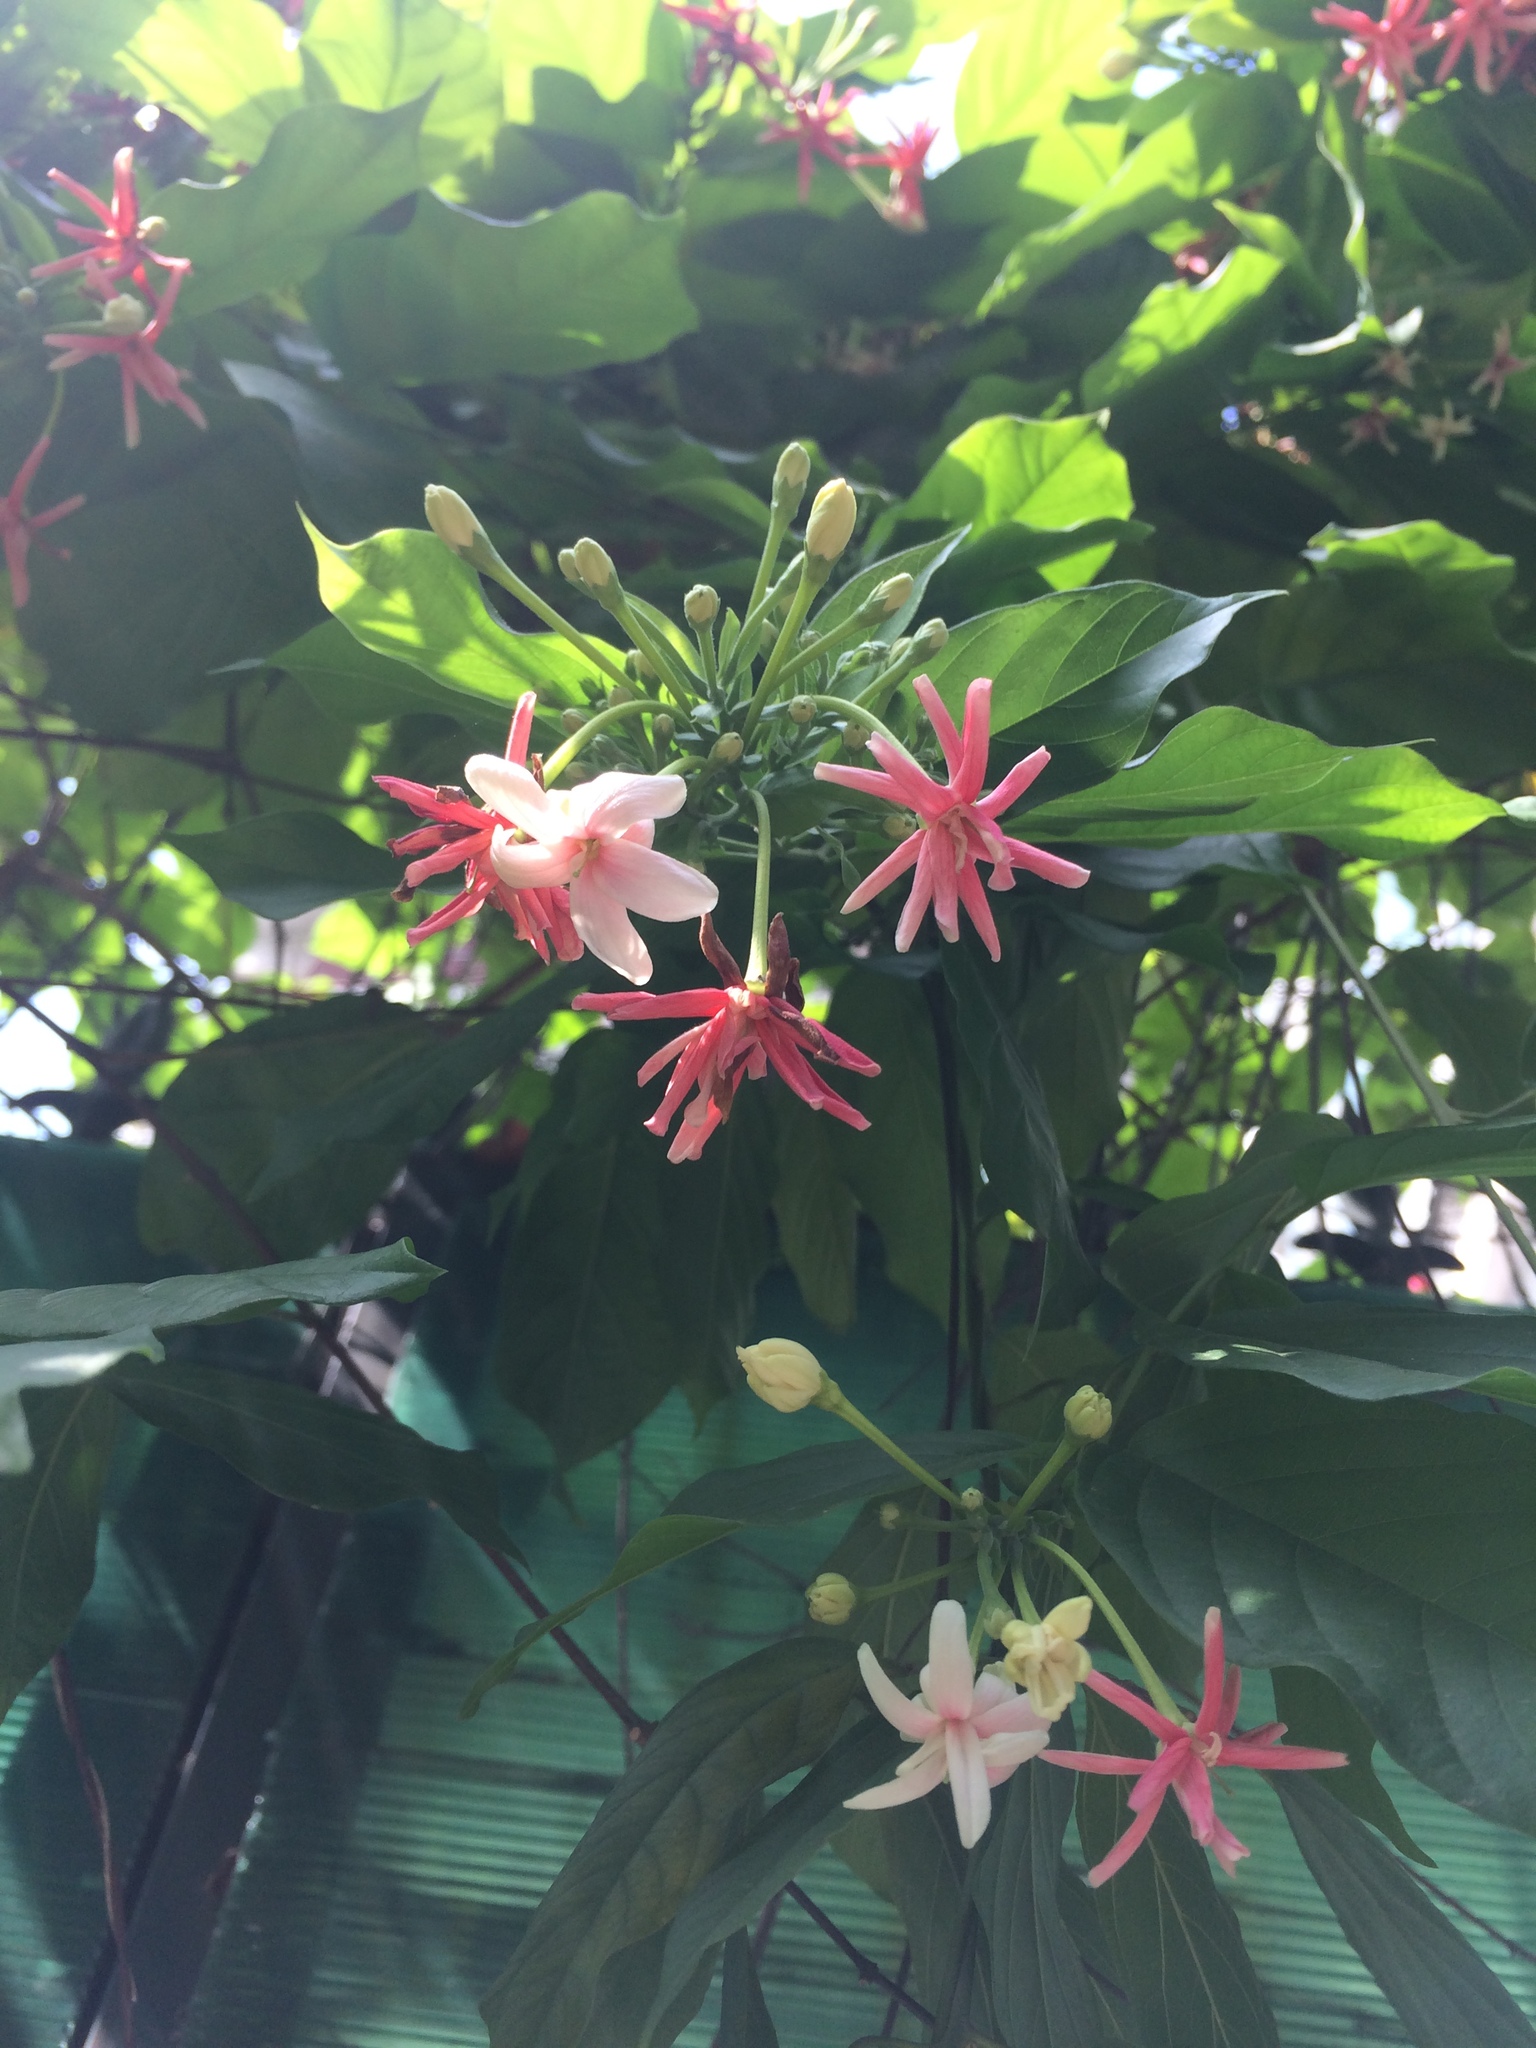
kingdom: Plantae
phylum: Tracheophyta
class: Magnoliopsida
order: Myrtales
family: Combretaceae
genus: Combretum
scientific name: Combretum indicum
